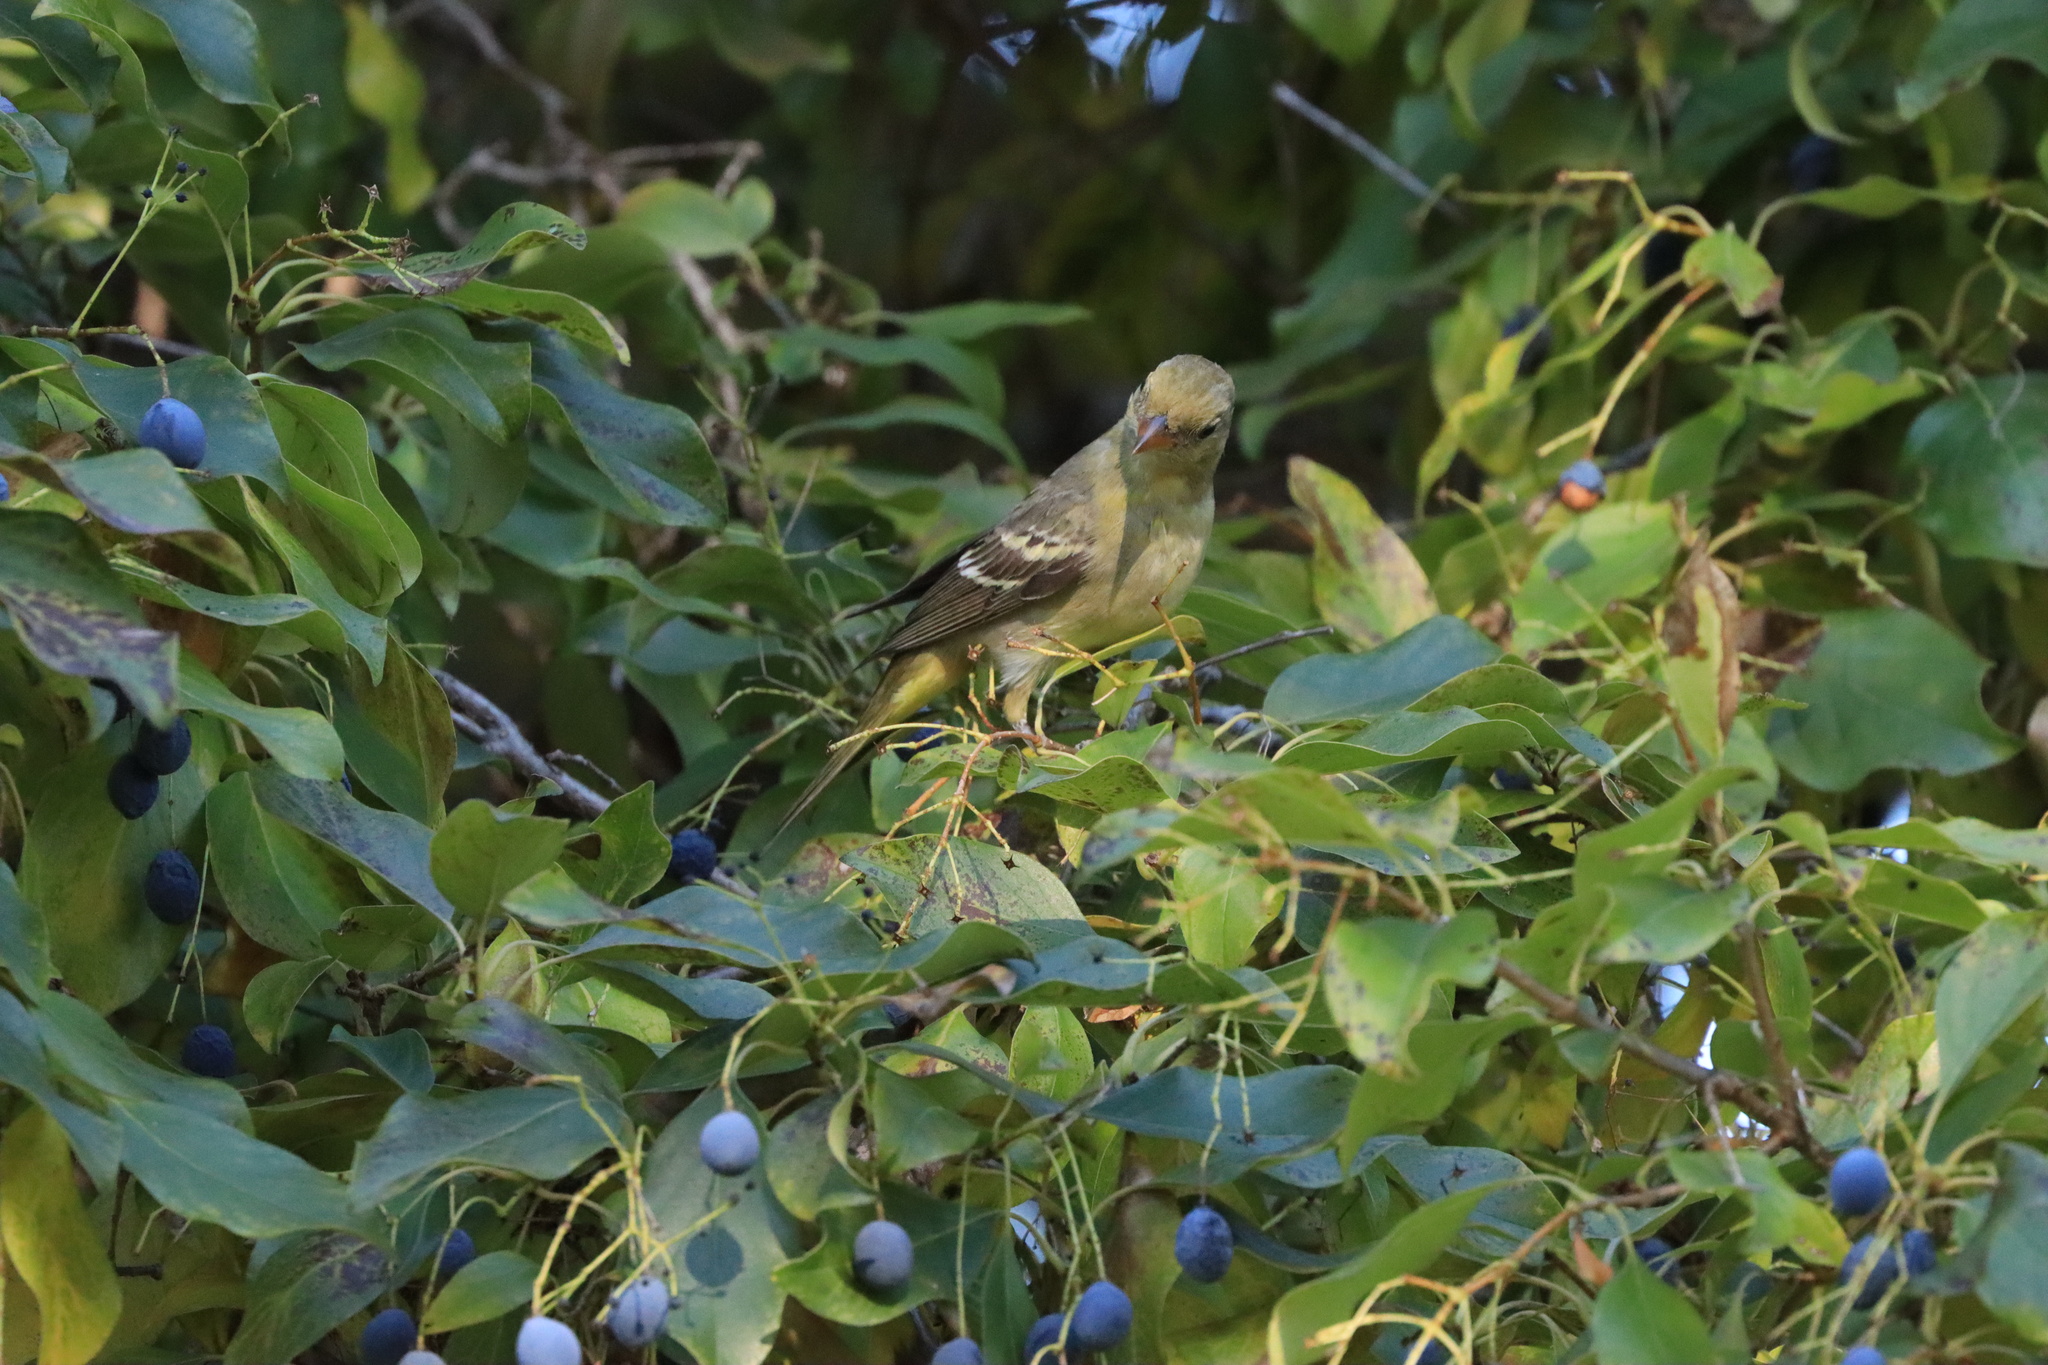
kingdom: Animalia
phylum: Chordata
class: Aves
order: Passeriformes
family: Cardinalidae
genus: Piranga
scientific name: Piranga ludoviciana
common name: Western tanager
